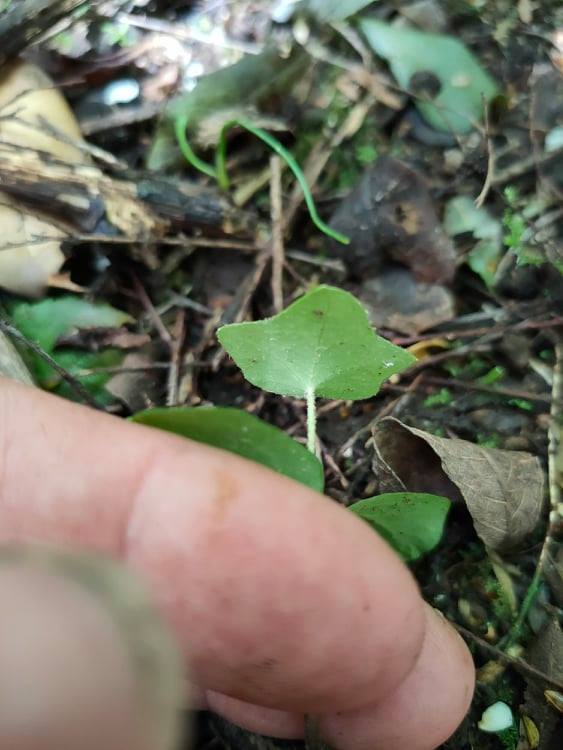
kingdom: Plantae
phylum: Tracheophyta
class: Magnoliopsida
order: Apiales
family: Araliaceae
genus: Hedera
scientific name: Hedera helix
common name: Ivy
